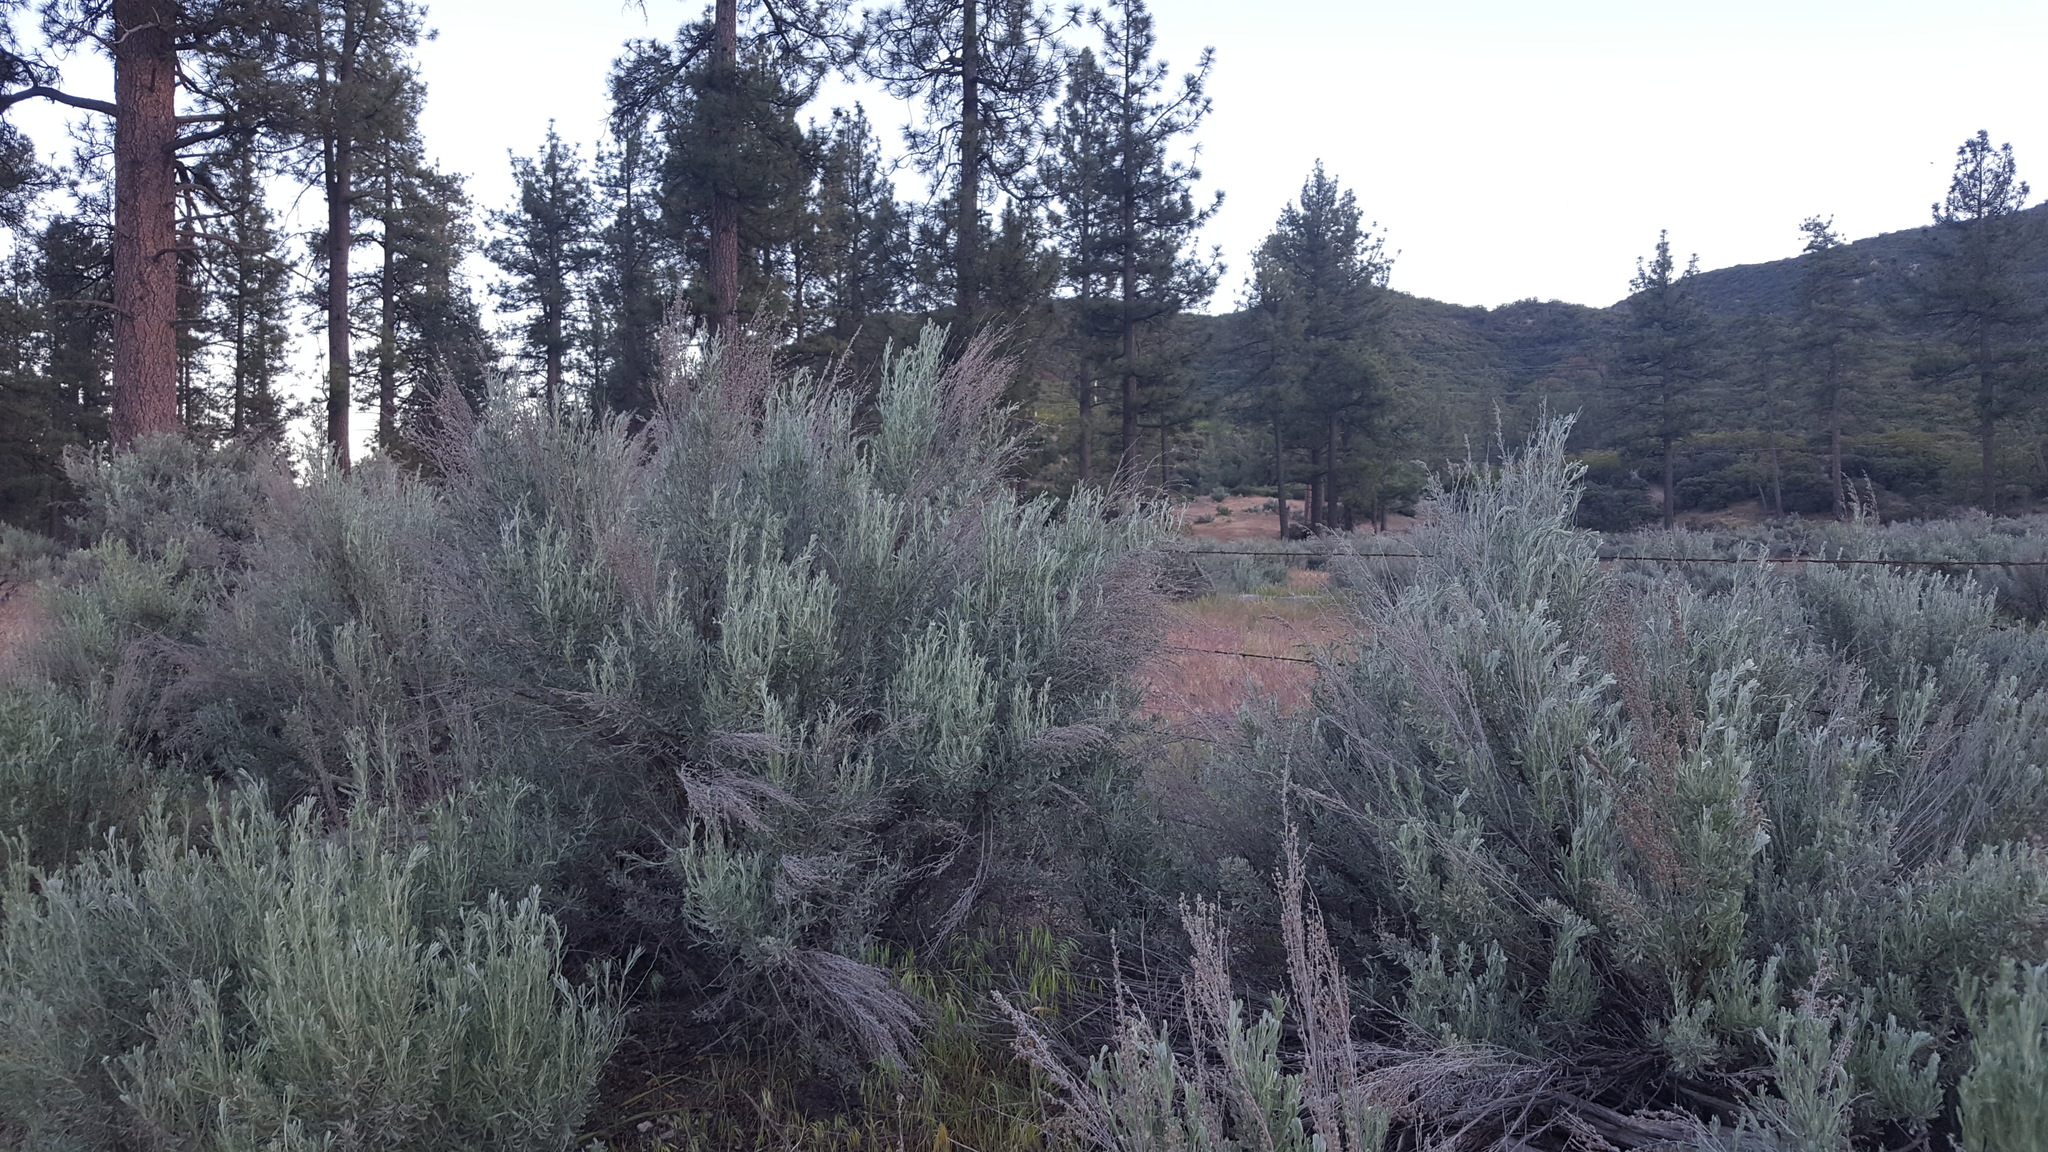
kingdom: Plantae
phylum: Tracheophyta
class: Magnoliopsida
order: Asterales
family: Asteraceae
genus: Artemisia
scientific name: Artemisia tridentata
